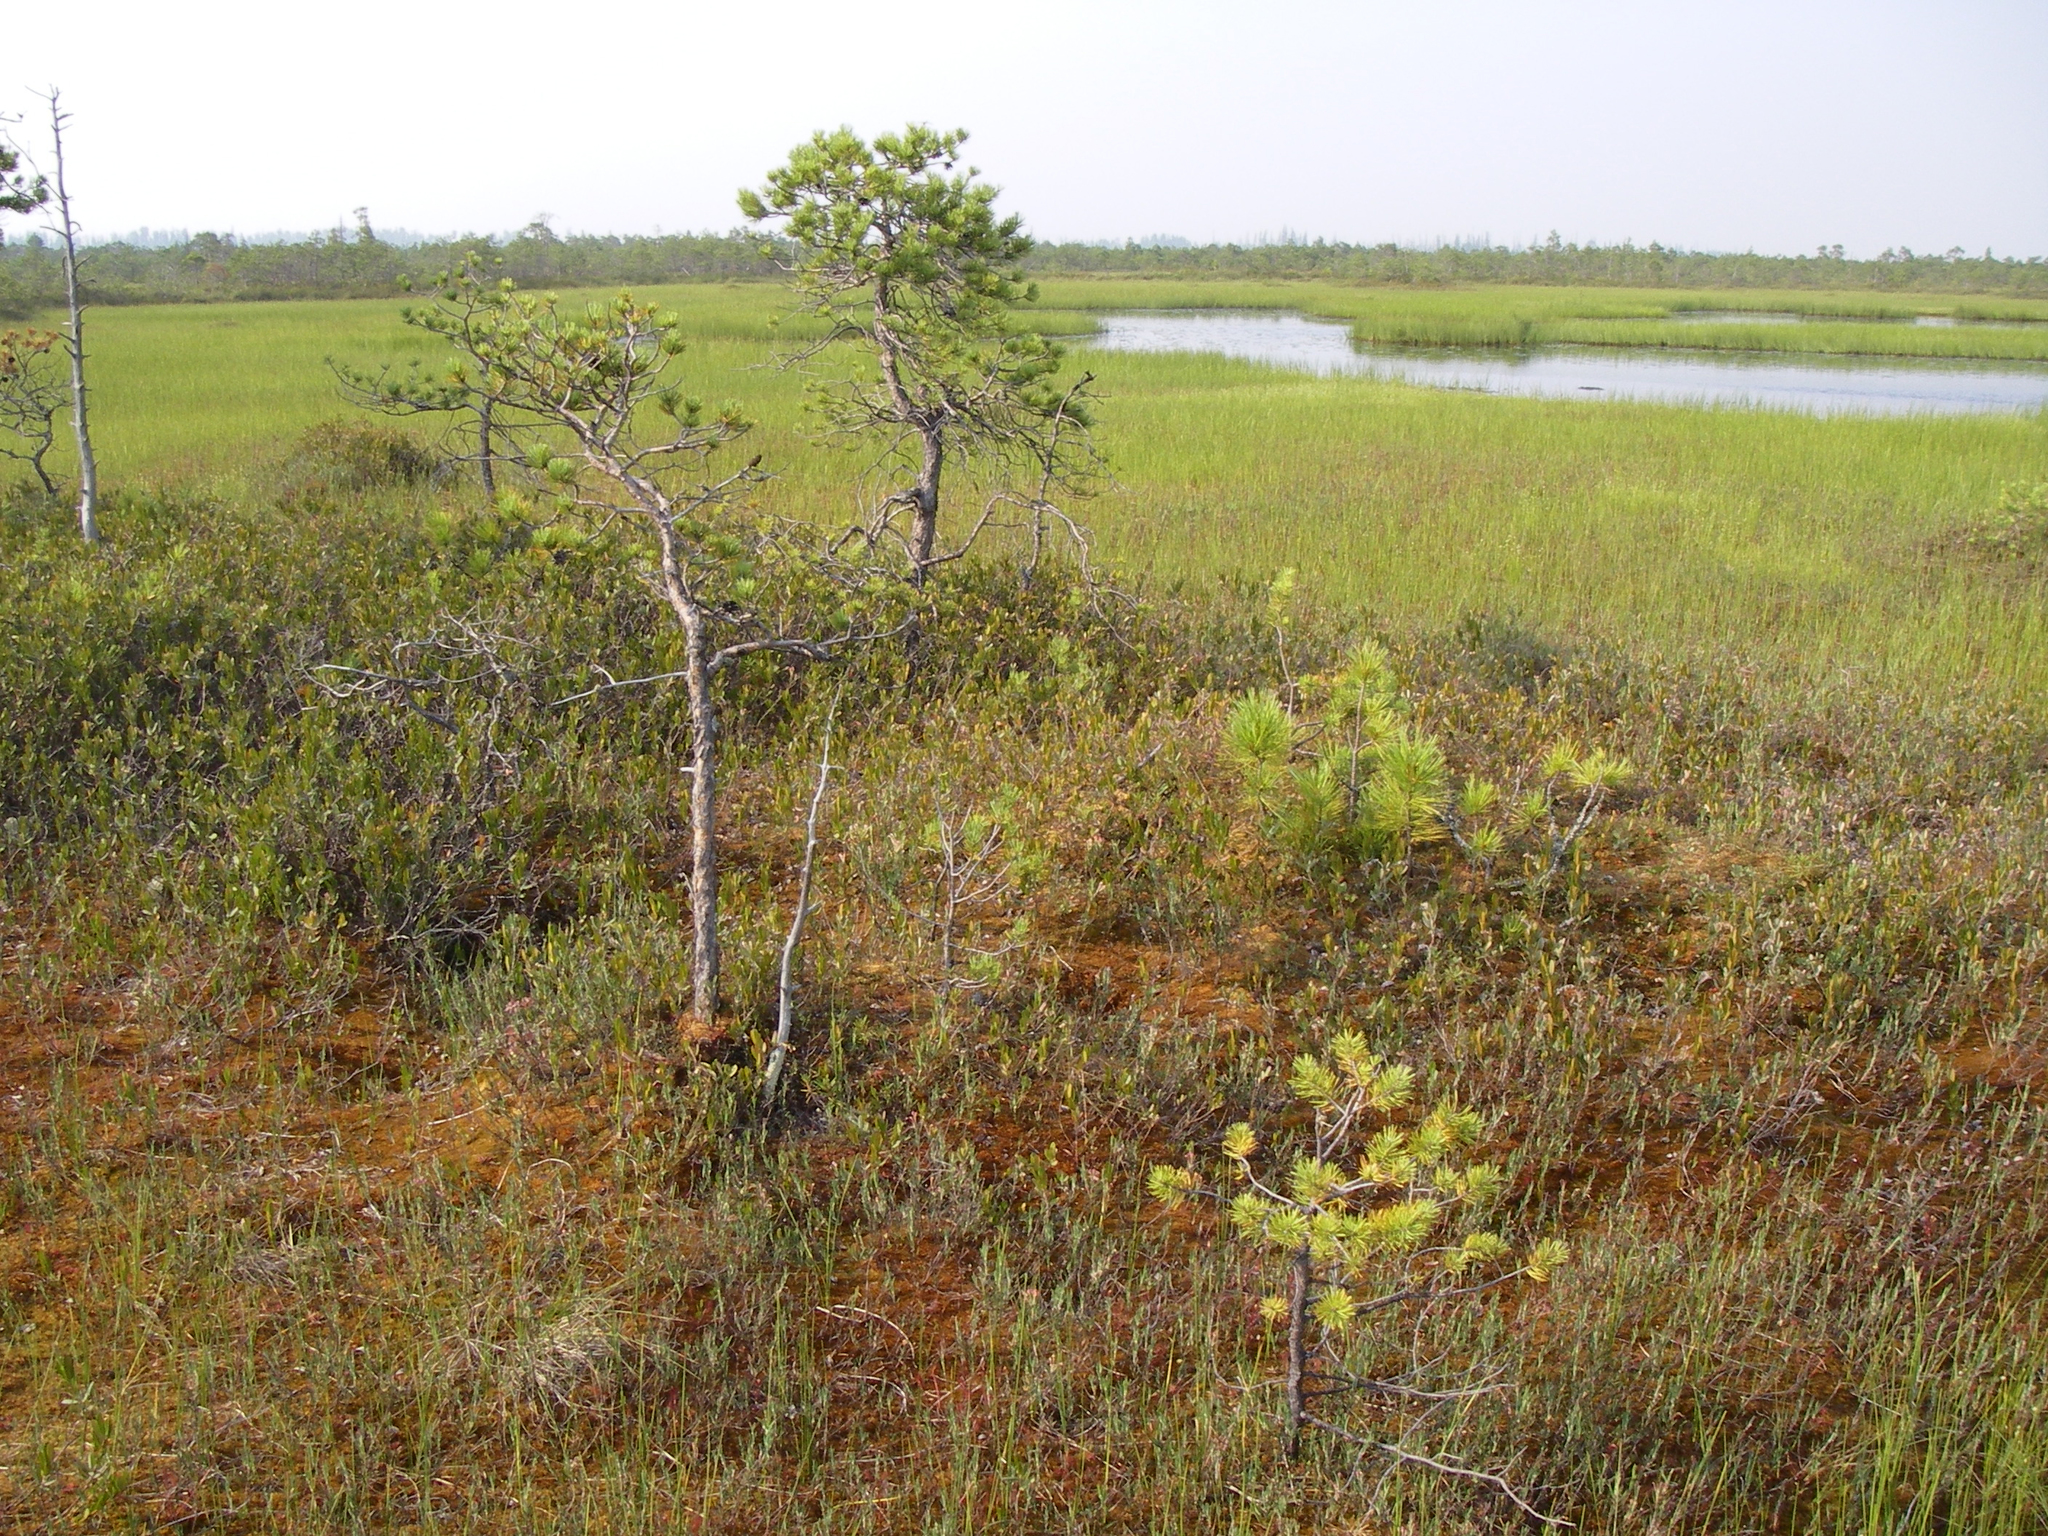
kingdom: Plantae
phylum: Tracheophyta
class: Pinopsida
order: Pinales
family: Pinaceae
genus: Pinus
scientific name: Pinus sylvestris
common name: Scots pine
